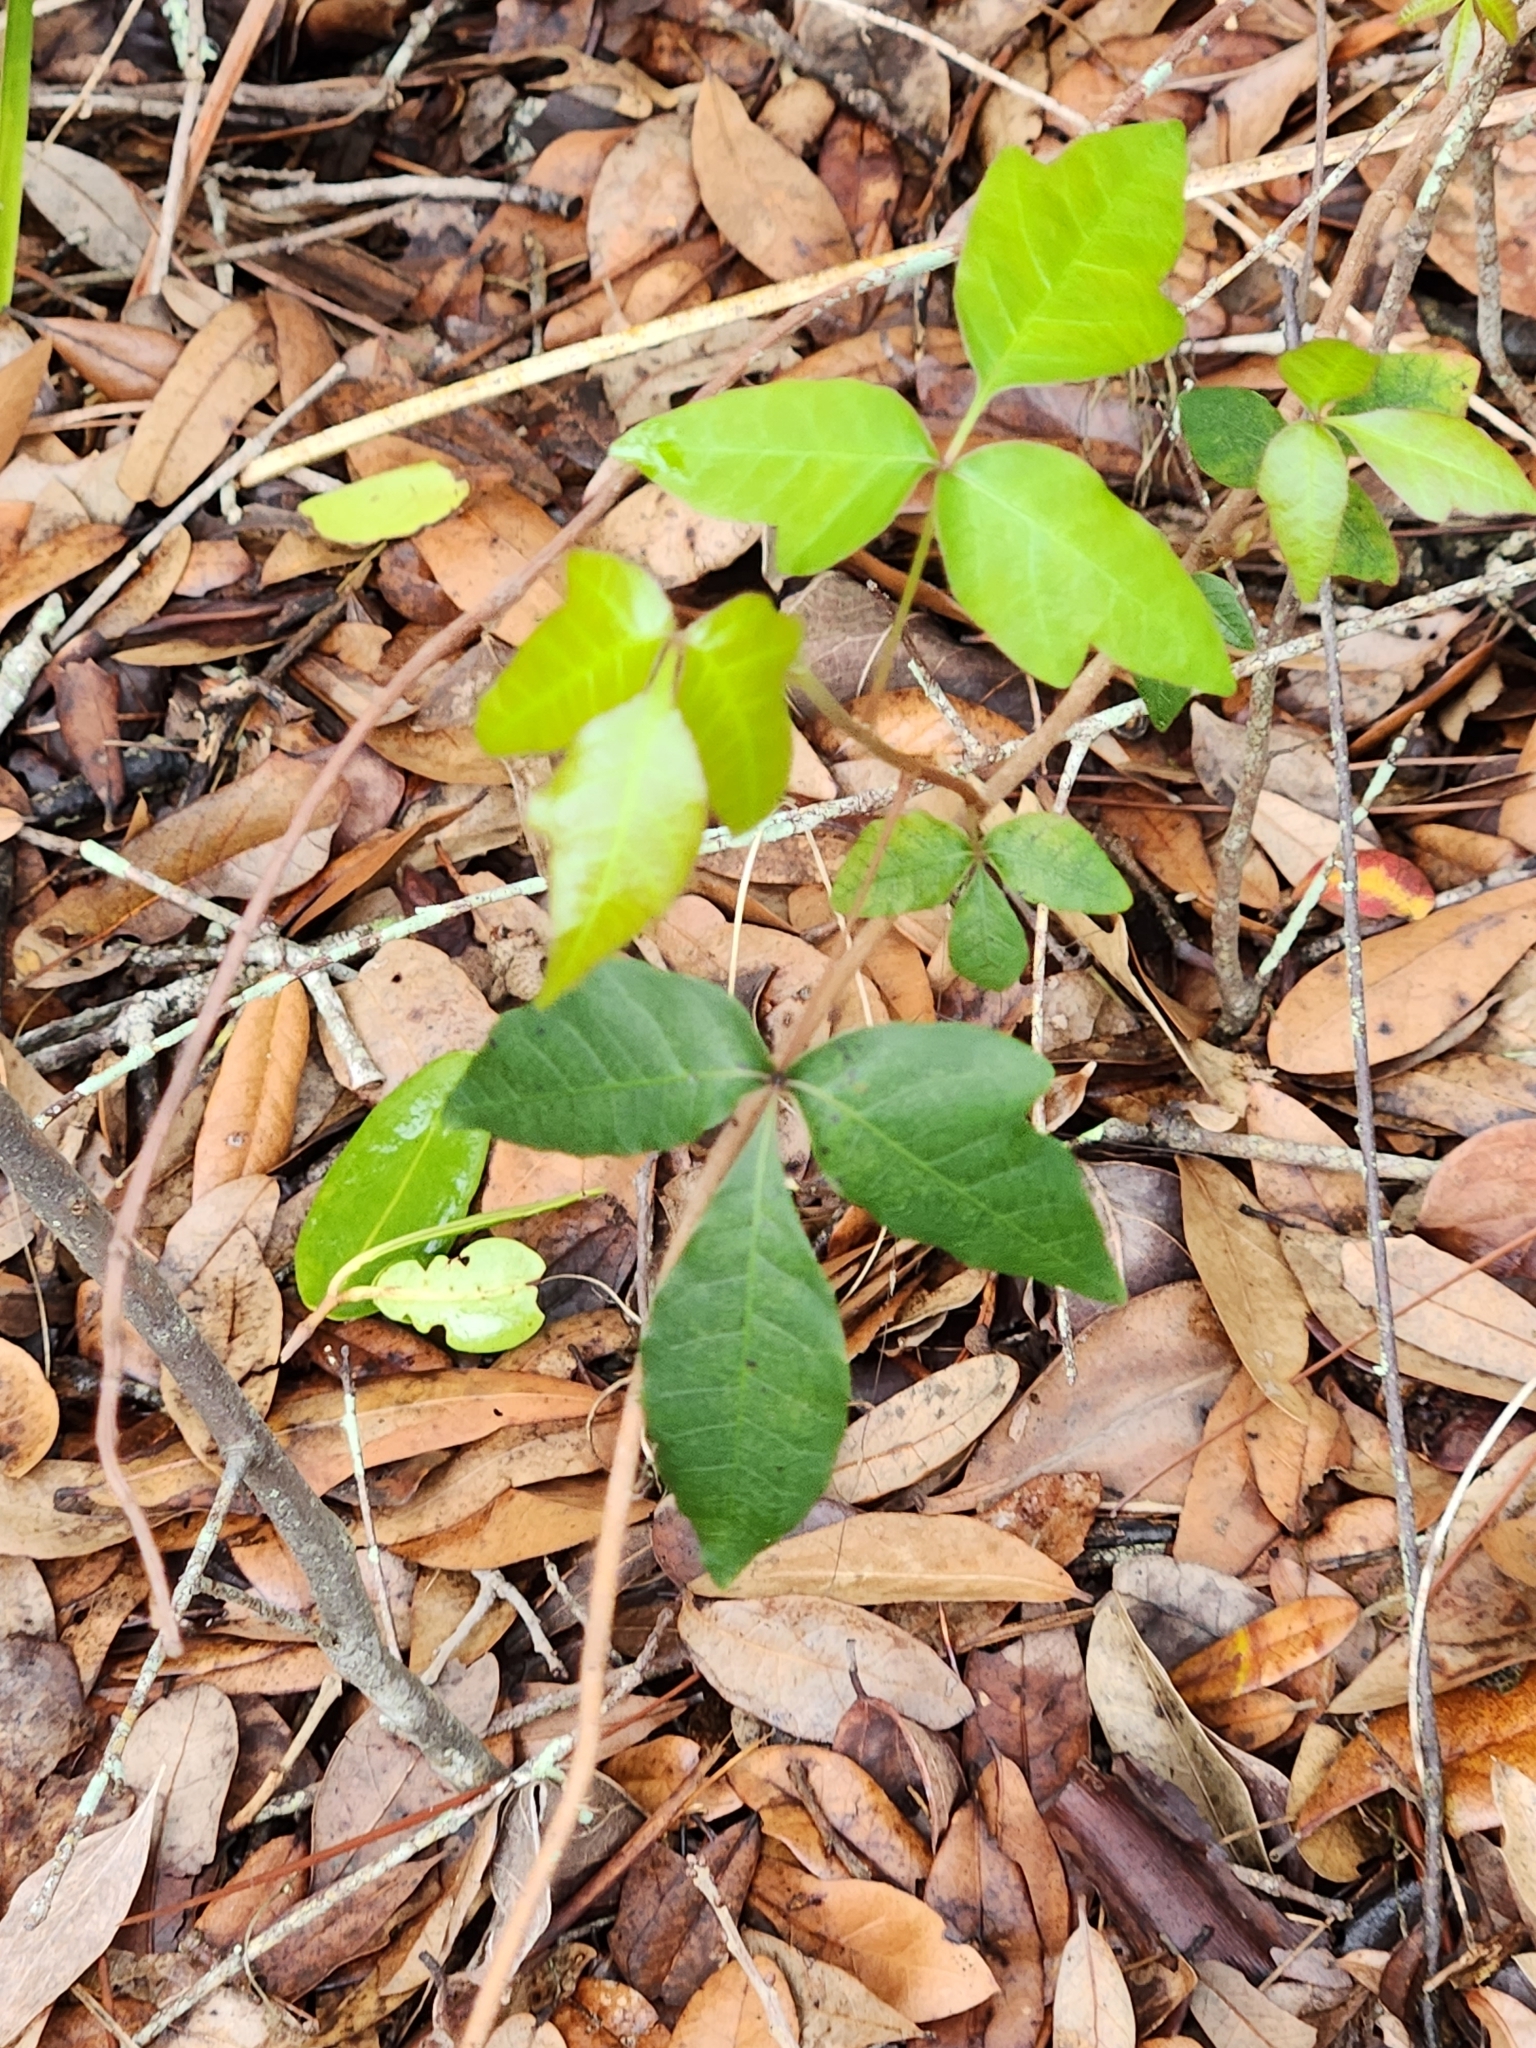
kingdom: Plantae
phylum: Tracheophyta
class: Magnoliopsida
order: Sapindales
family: Anacardiaceae
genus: Toxicodendron
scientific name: Toxicodendron radicans
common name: Poison ivy
